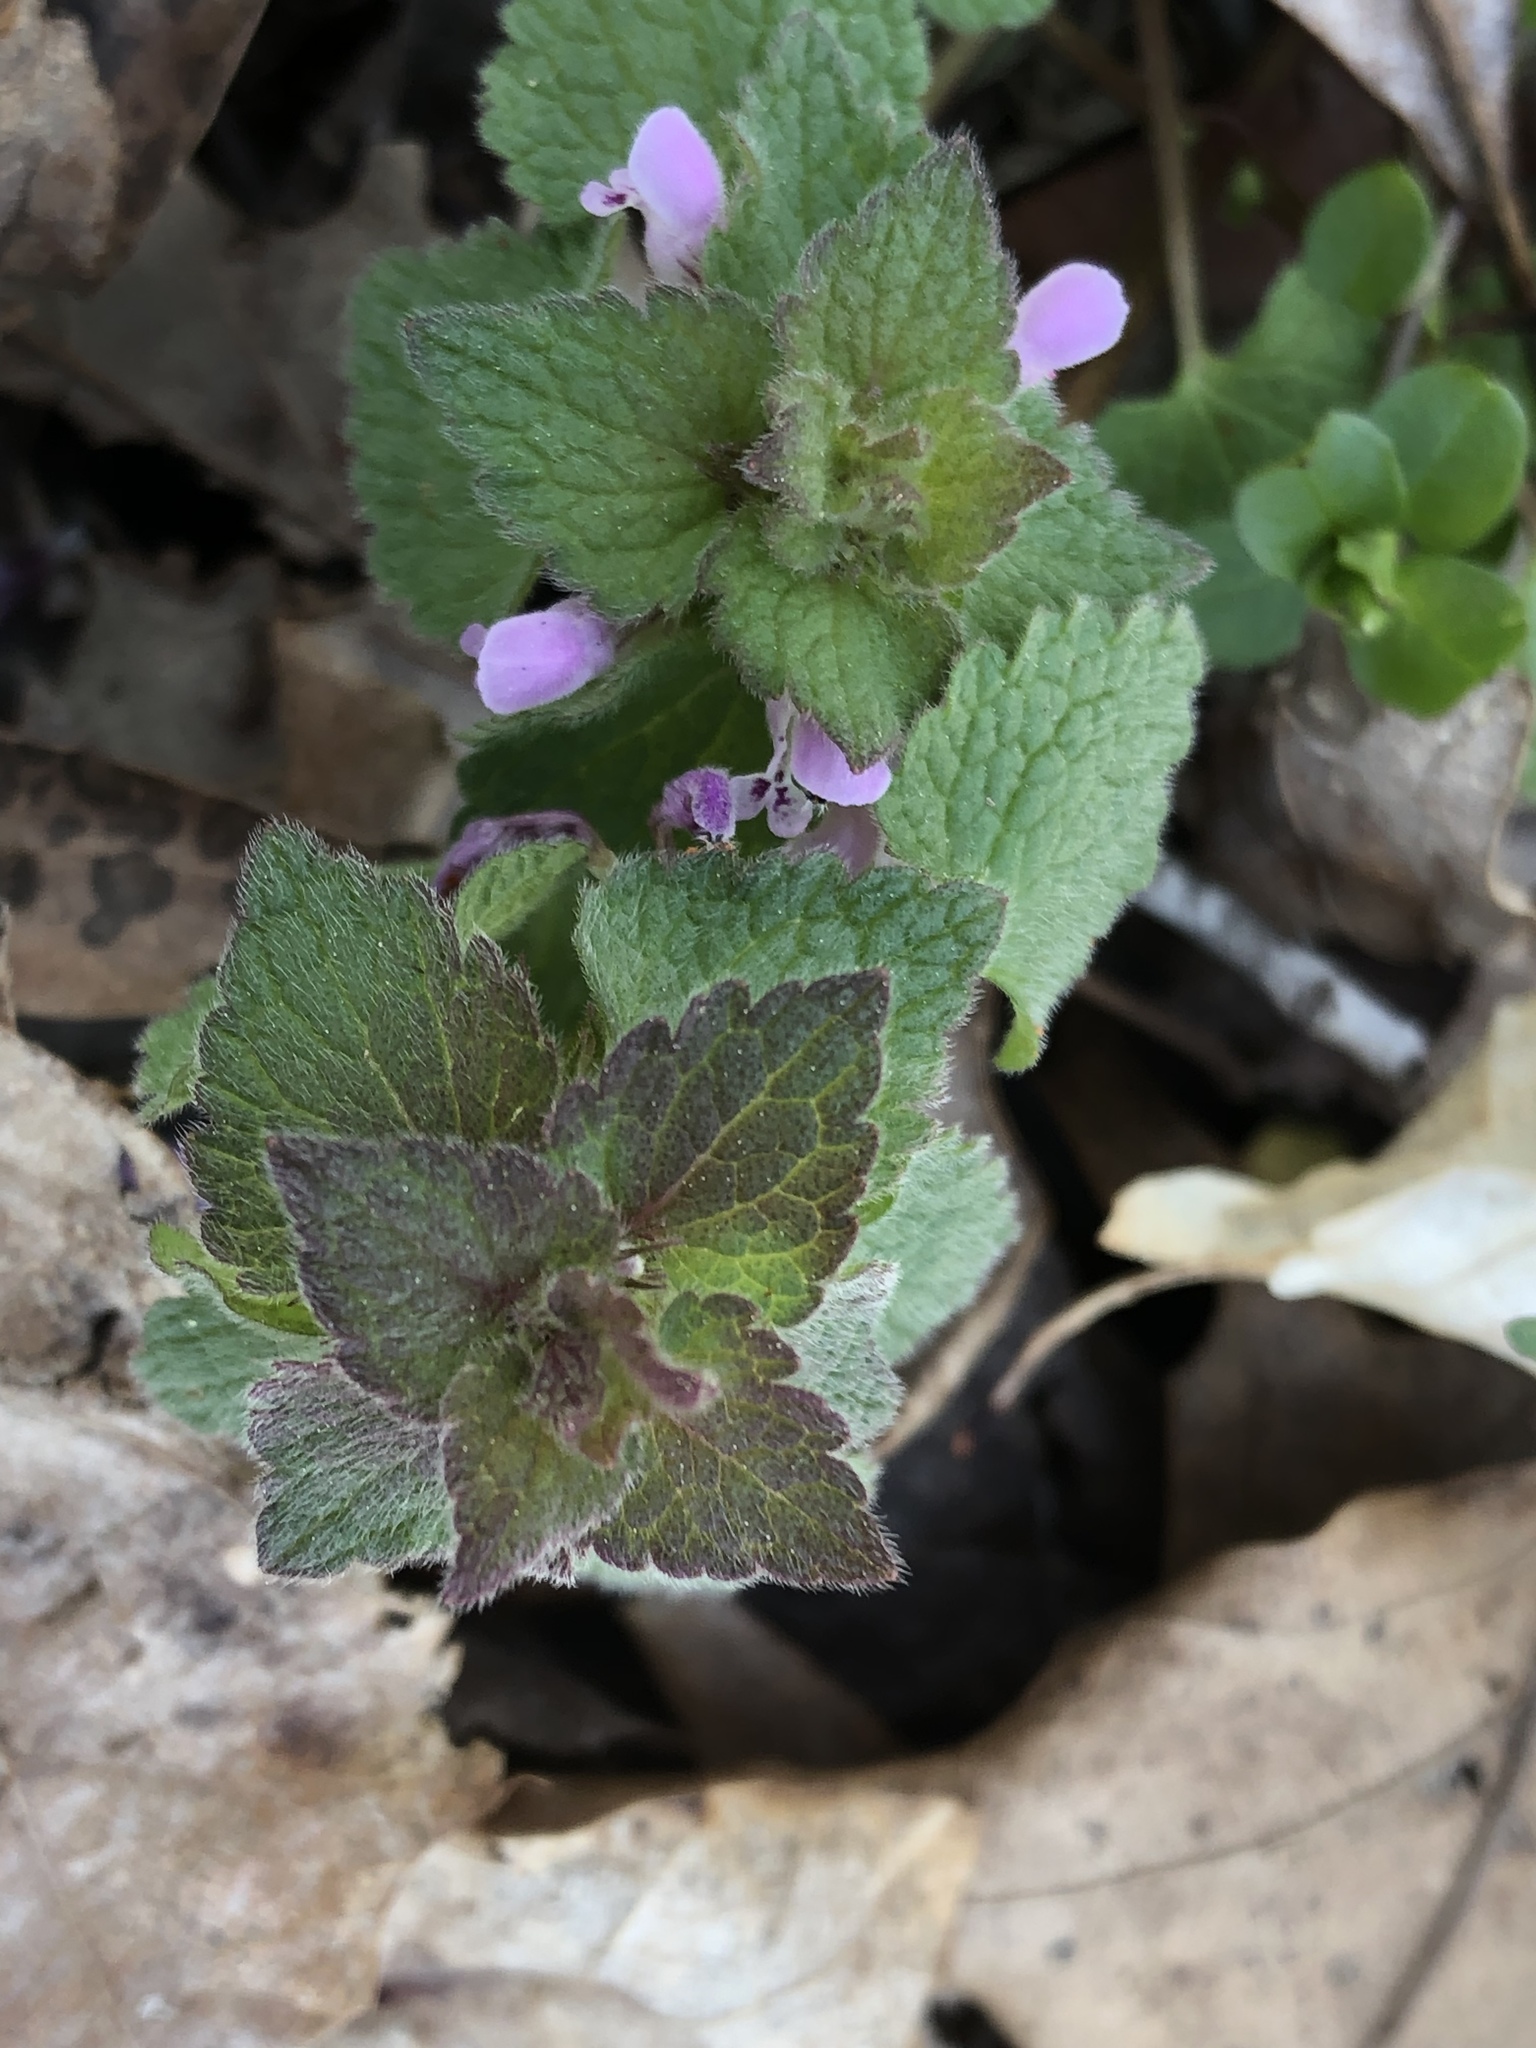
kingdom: Plantae
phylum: Tracheophyta
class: Magnoliopsida
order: Lamiales
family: Lamiaceae
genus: Lamium
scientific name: Lamium purpureum
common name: Red dead-nettle
